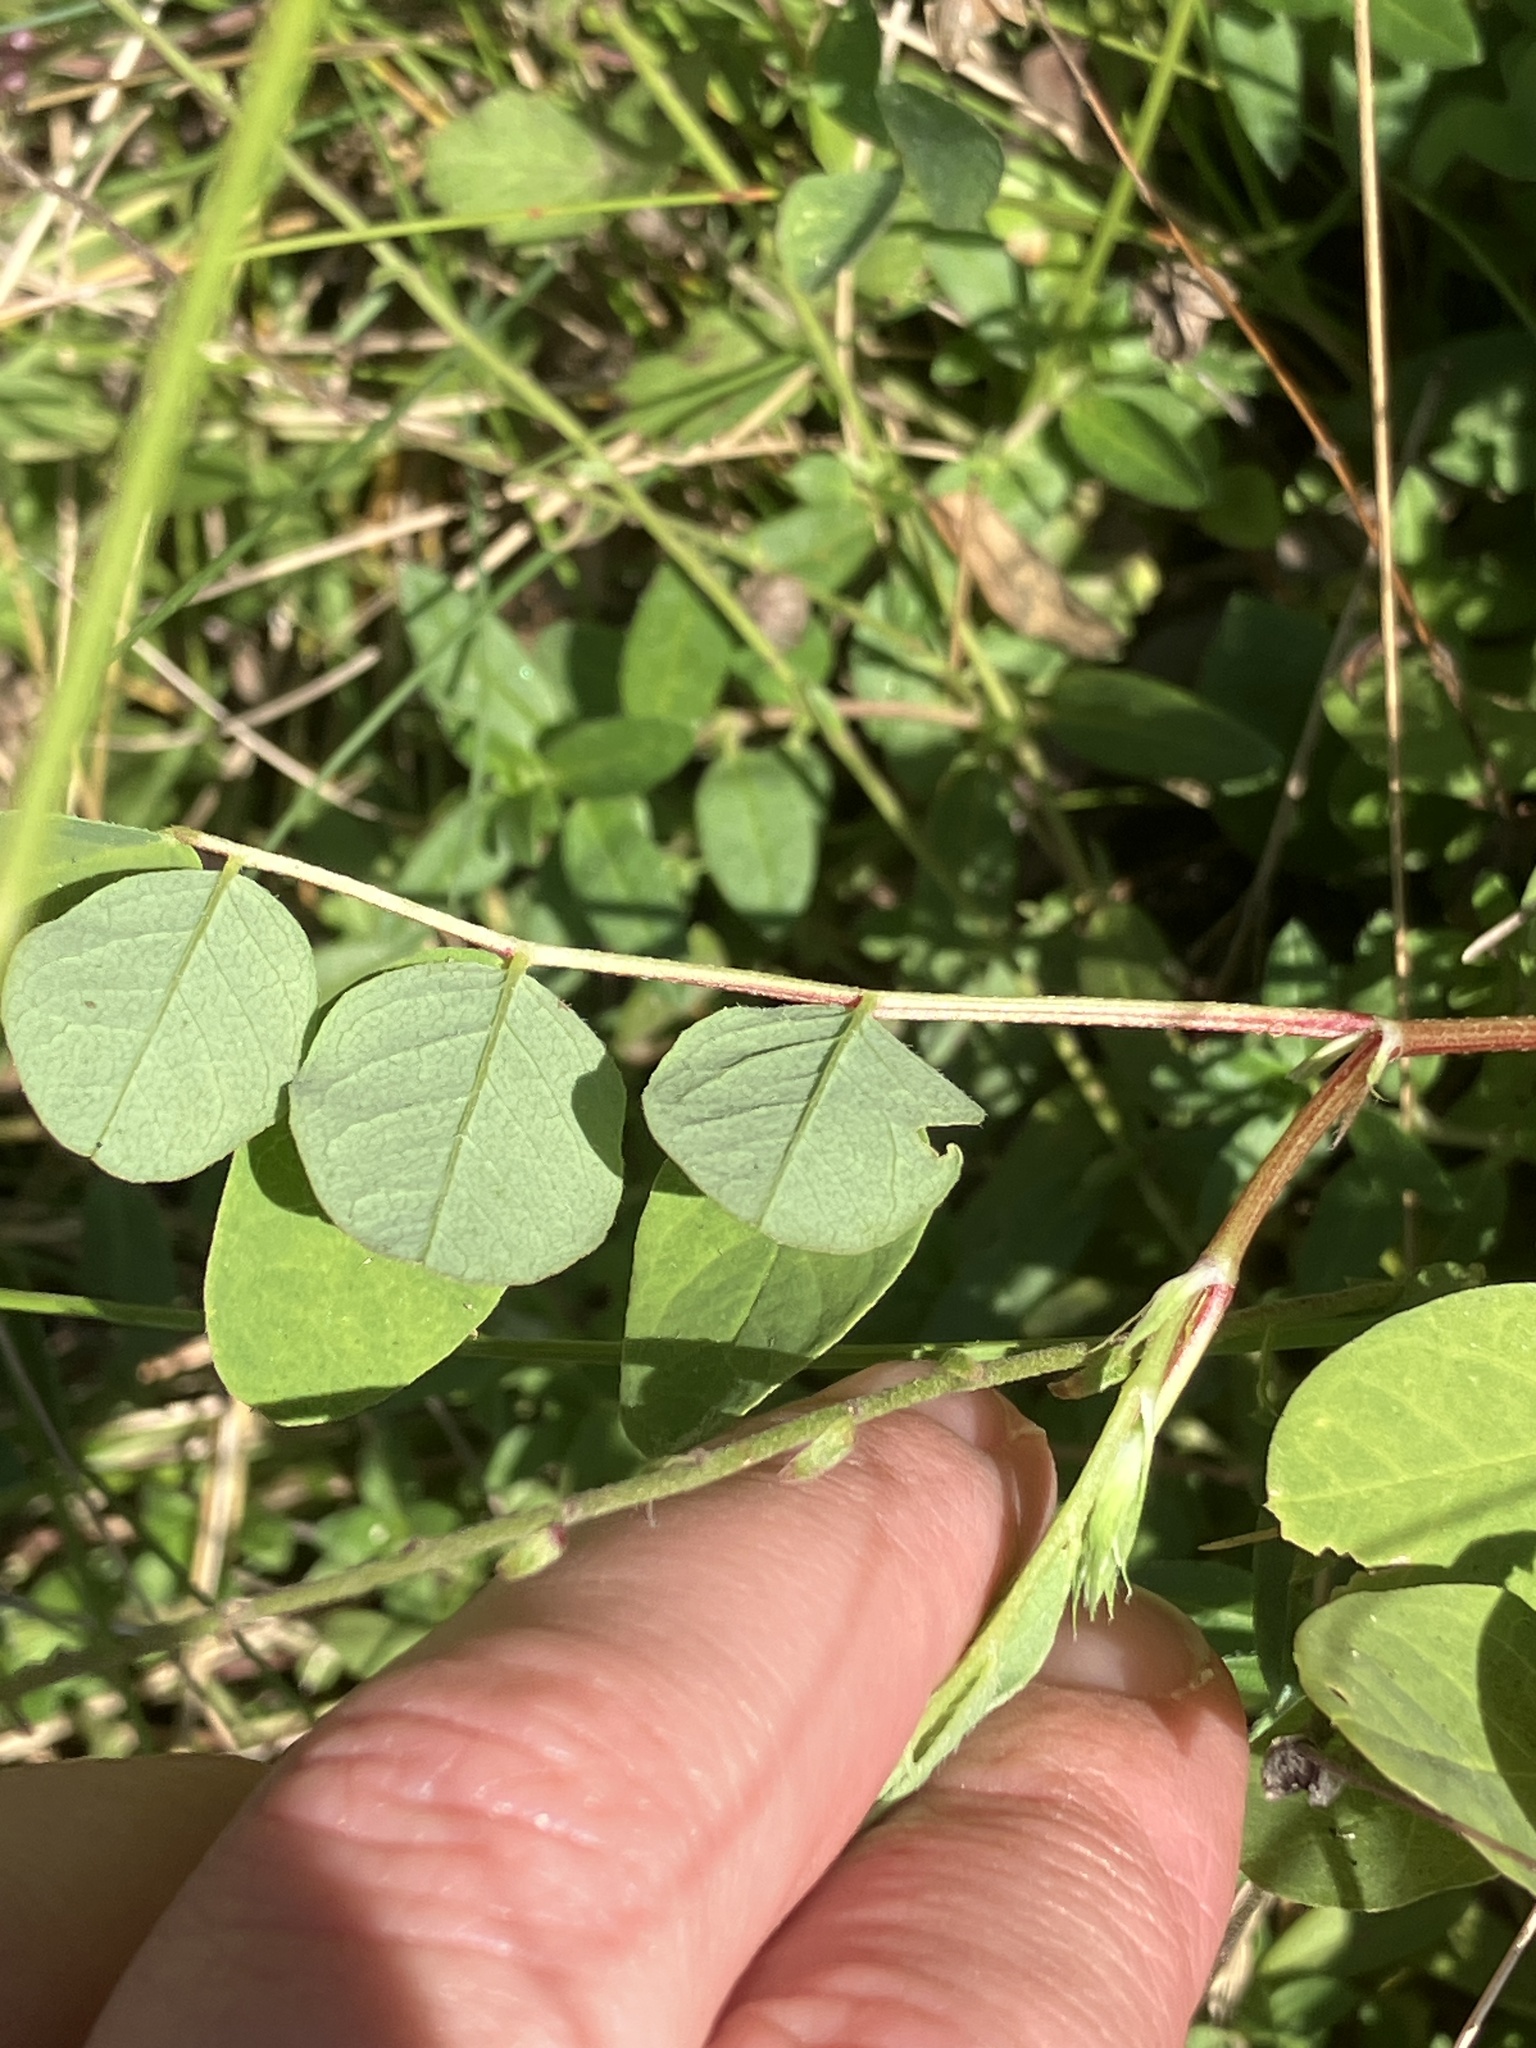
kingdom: Plantae
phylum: Tracheophyta
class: Magnoliopsida
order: Fabales
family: Fabaceae
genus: Astragalus
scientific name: Astragalus glycyphyllos
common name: Wild liquorice
